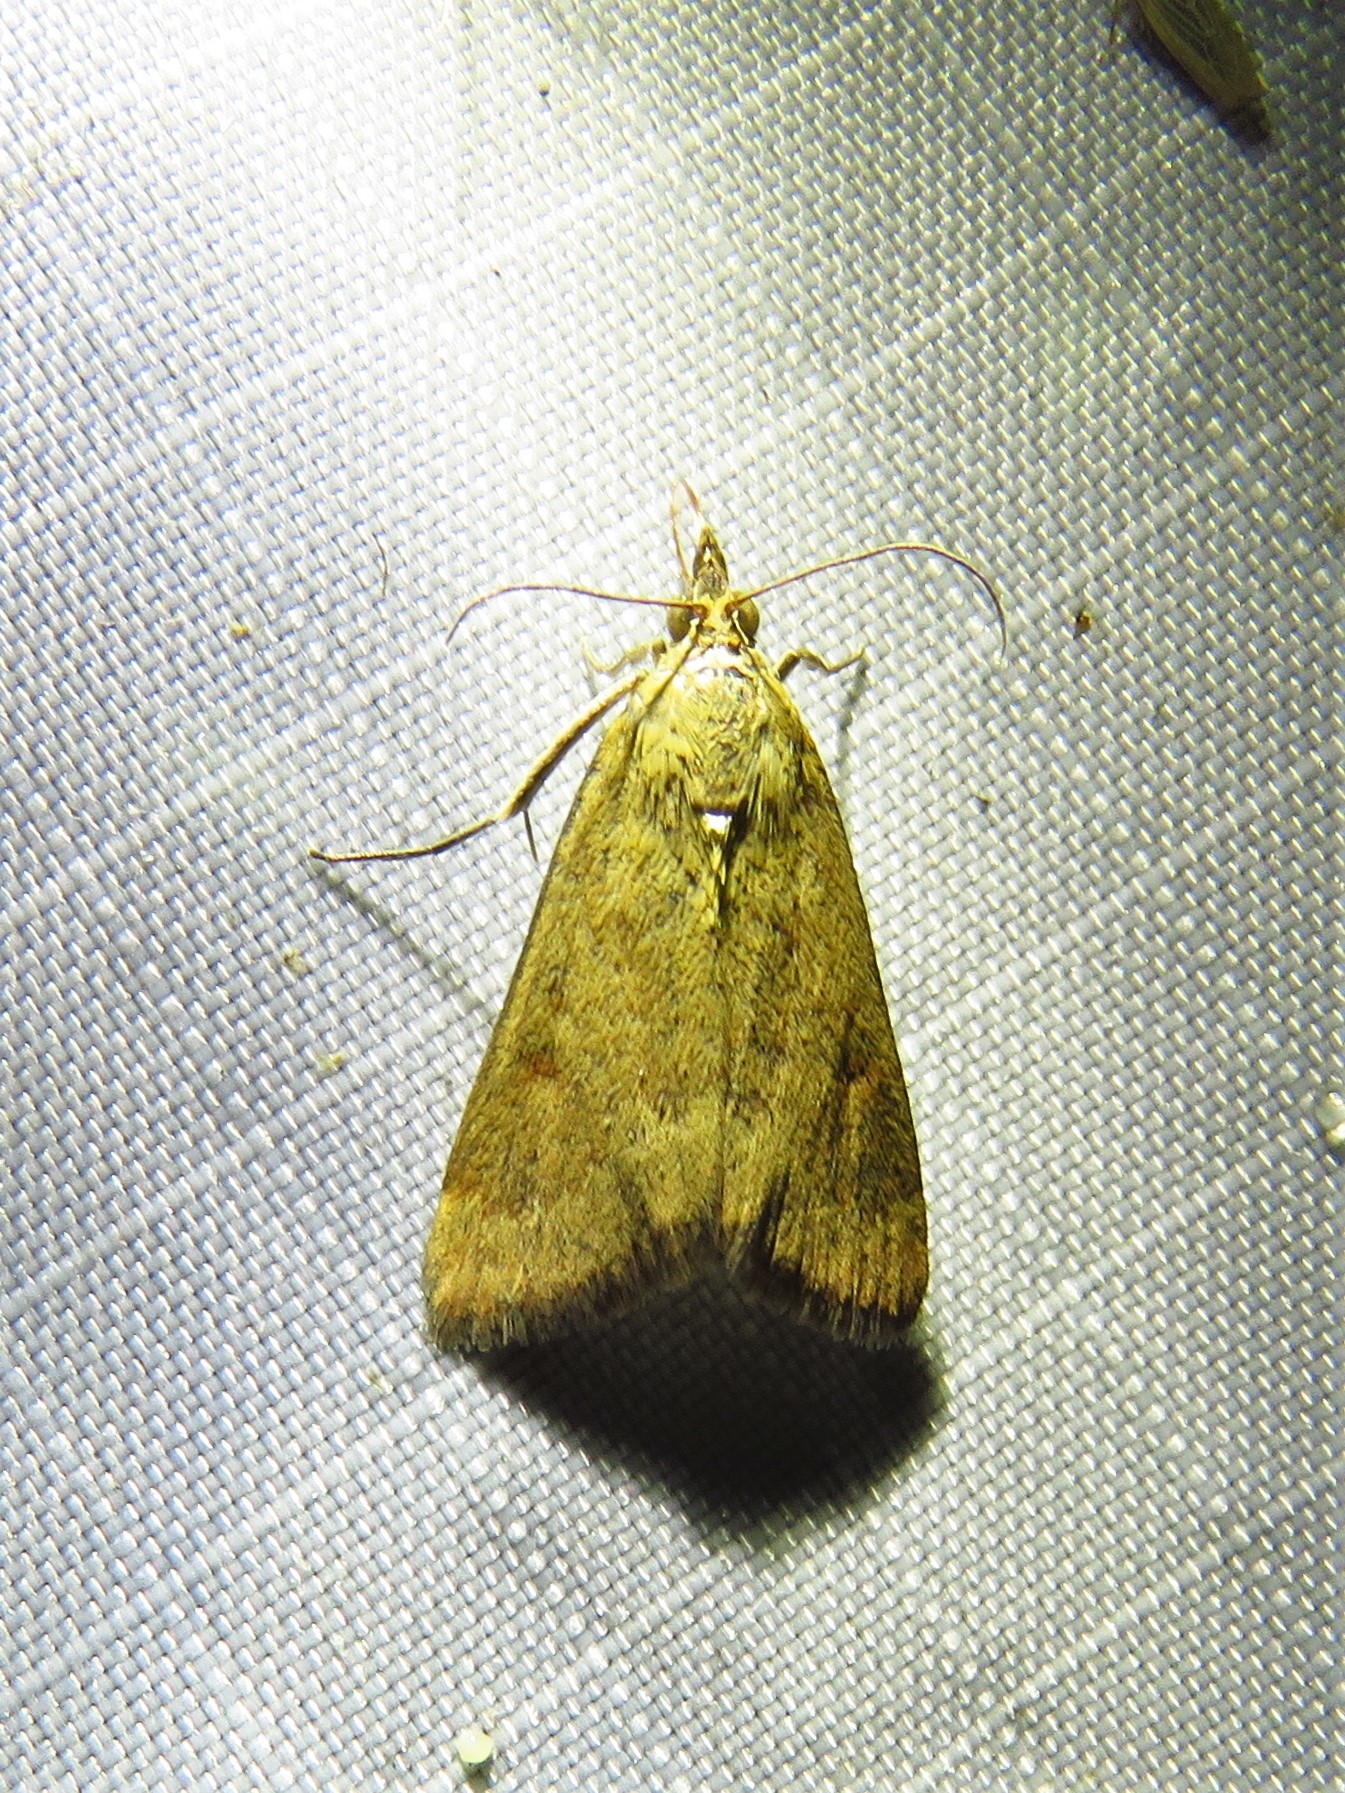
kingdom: Animalia
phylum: Arthropoda
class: Insecta
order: Lepidoptera
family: Crambidae
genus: Achyra
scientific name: Achyra rantalis
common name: Garden webworm
